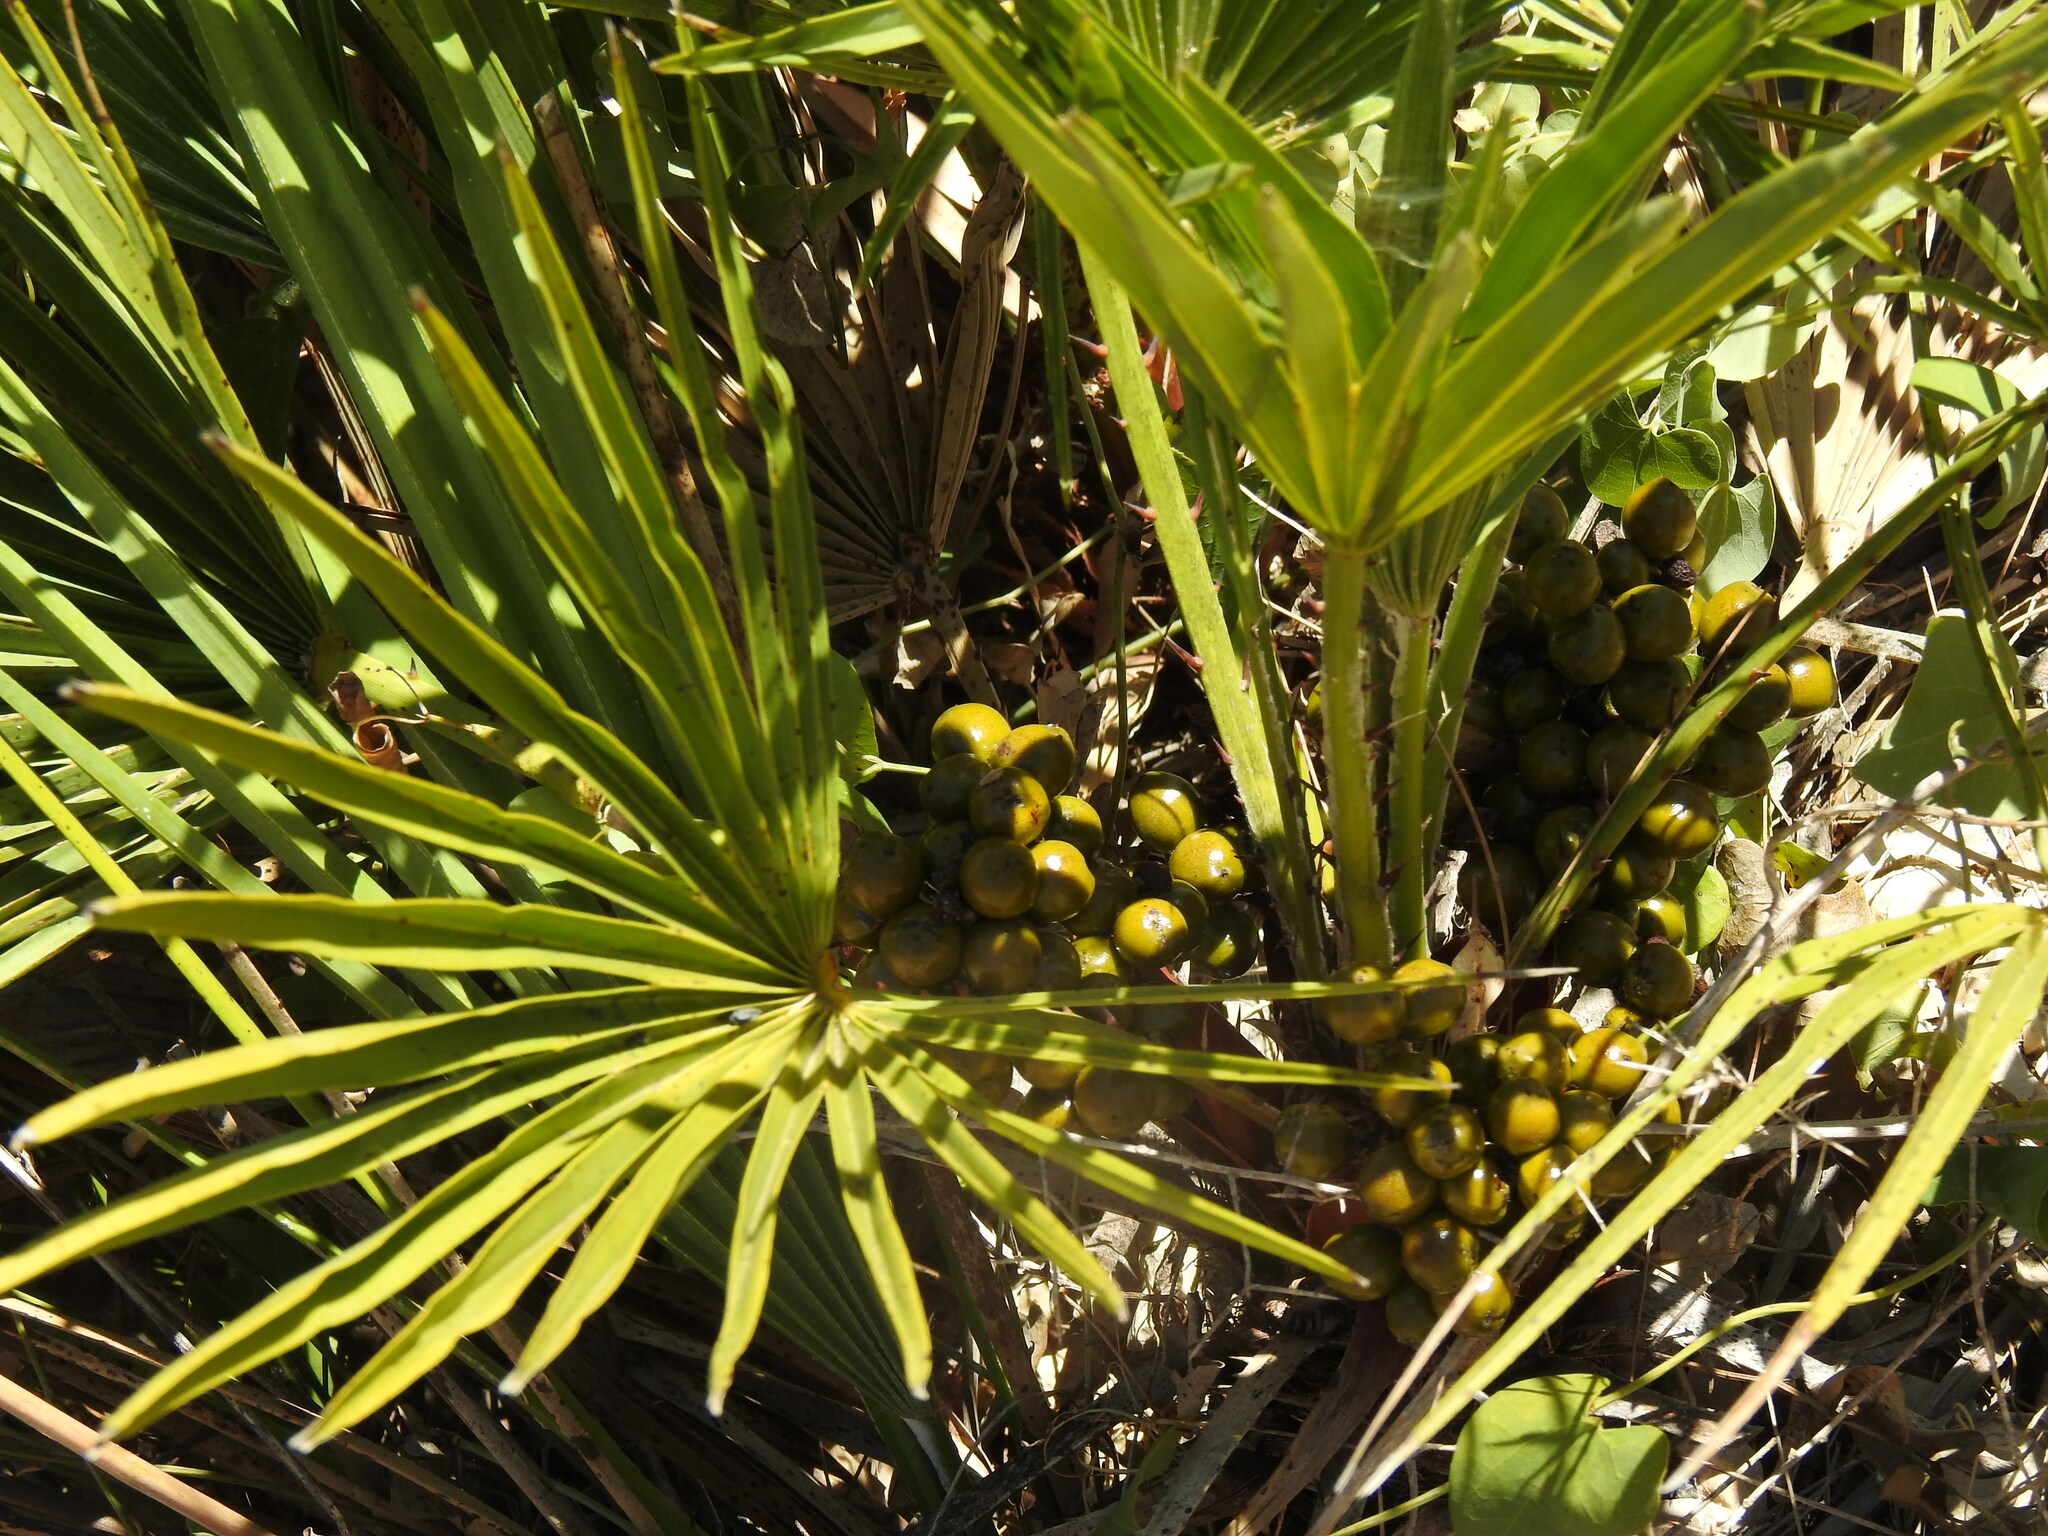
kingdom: Plantae
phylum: Tracheophyta
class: Liliopsida
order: Arecales
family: Arecaceae
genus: Chamaerops
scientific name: Chamaerops humilis
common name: Dwarf fan palm
